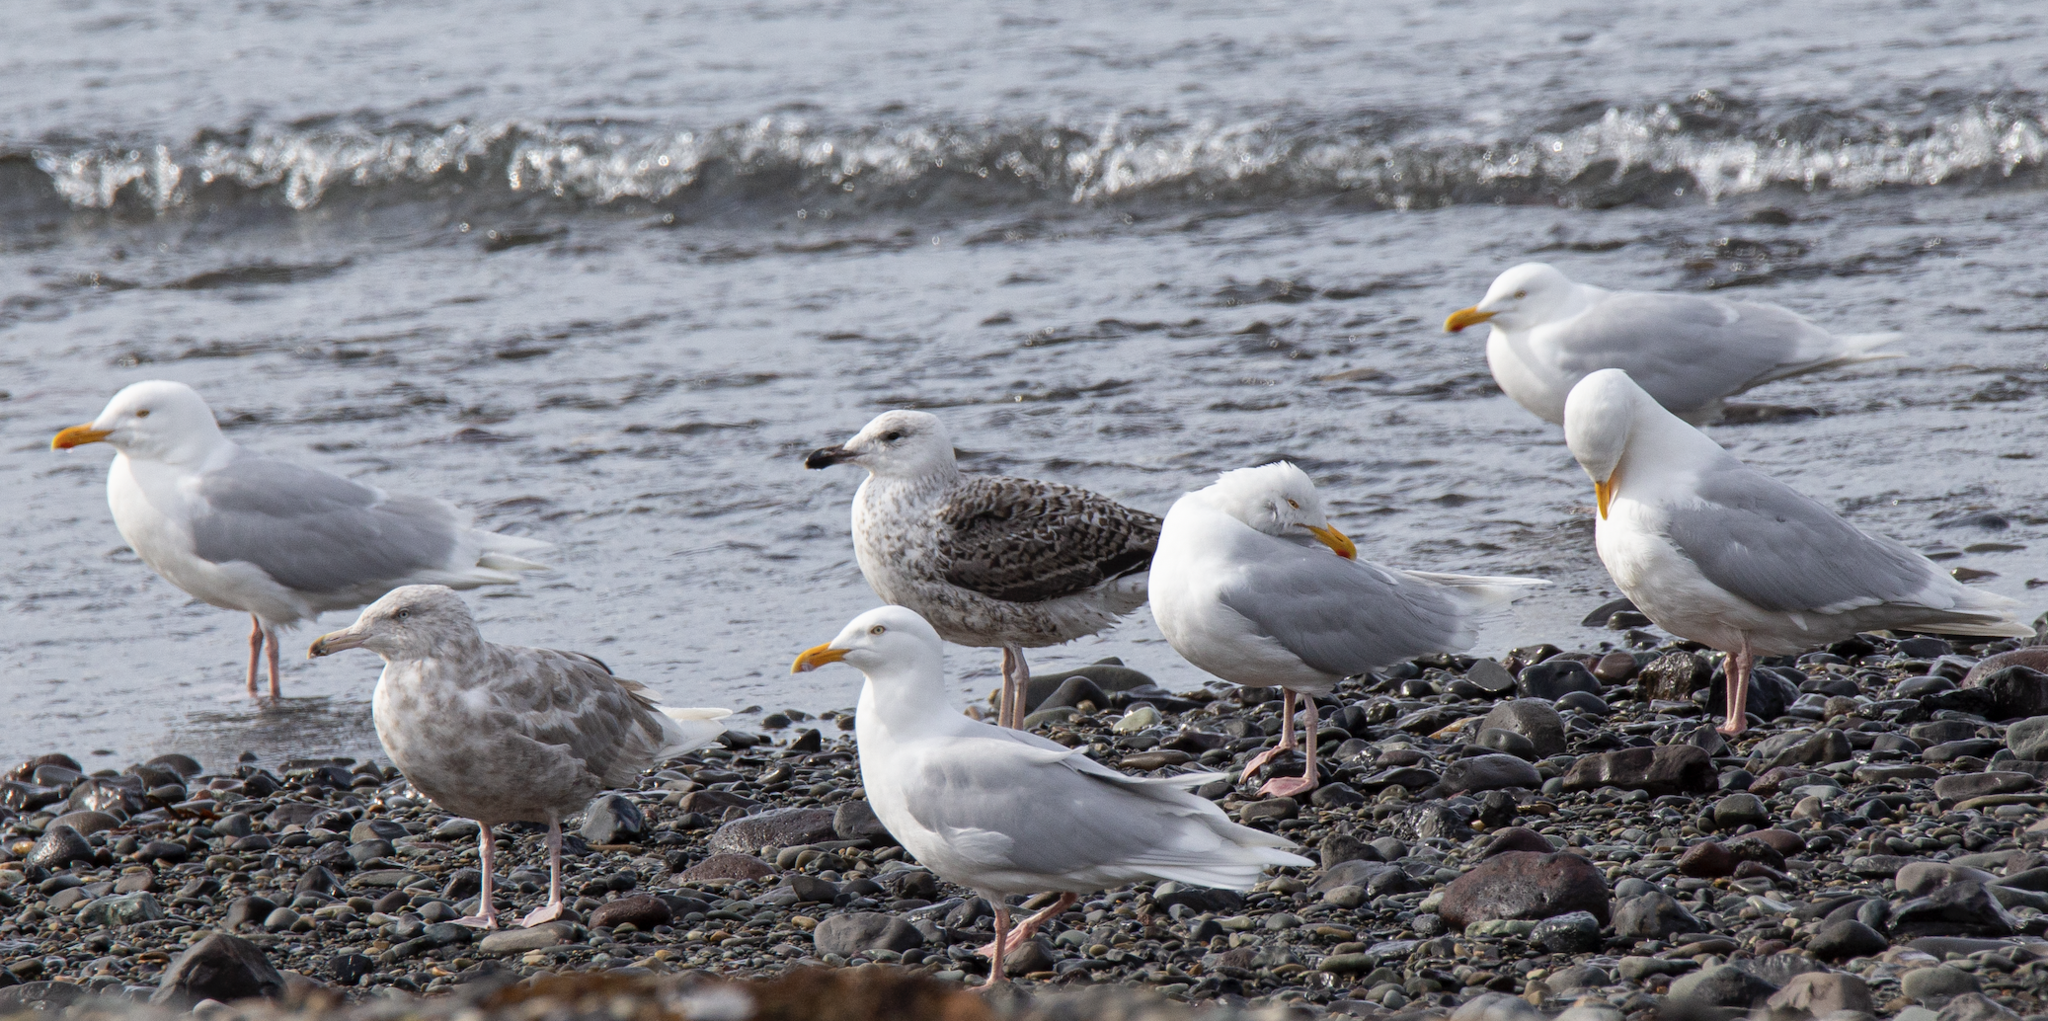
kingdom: Animalia
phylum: Chordata
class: Aves
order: Charadriiformes
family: Laridae
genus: Larus
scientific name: Larus hyperboreus
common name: Glaucous gull
